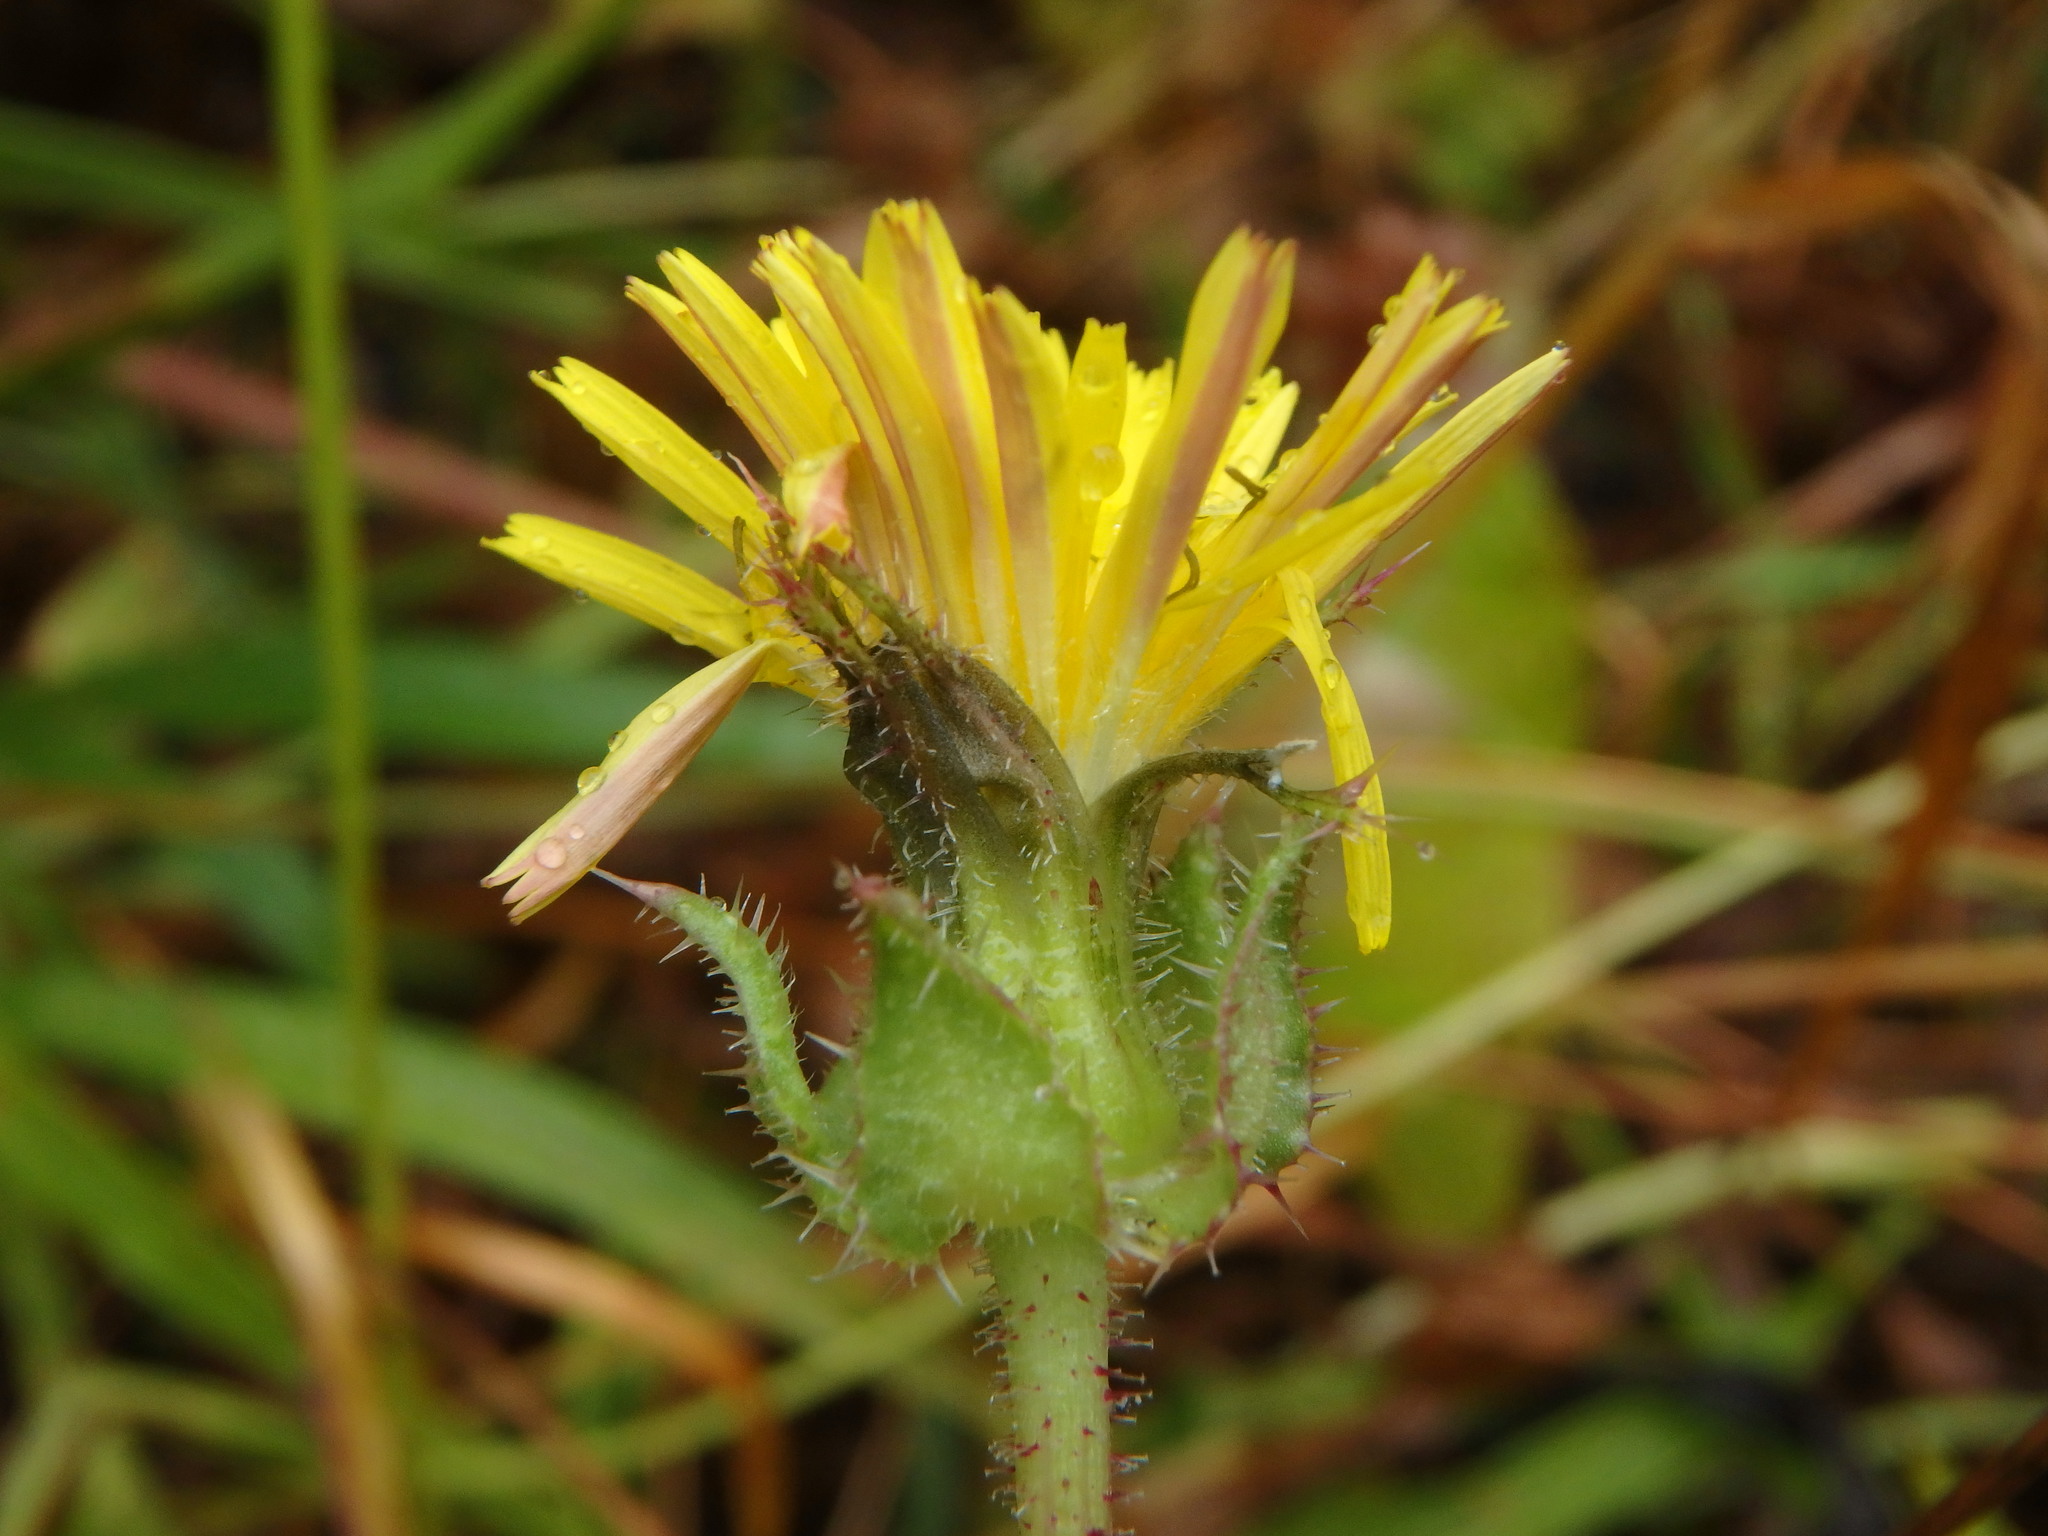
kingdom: Plantae
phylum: Tracheophyta
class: Magnoliopsida
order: Asterales
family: Asteraceae
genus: Helminthotheca
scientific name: Helminthotheca echioides
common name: Ox-tongue
